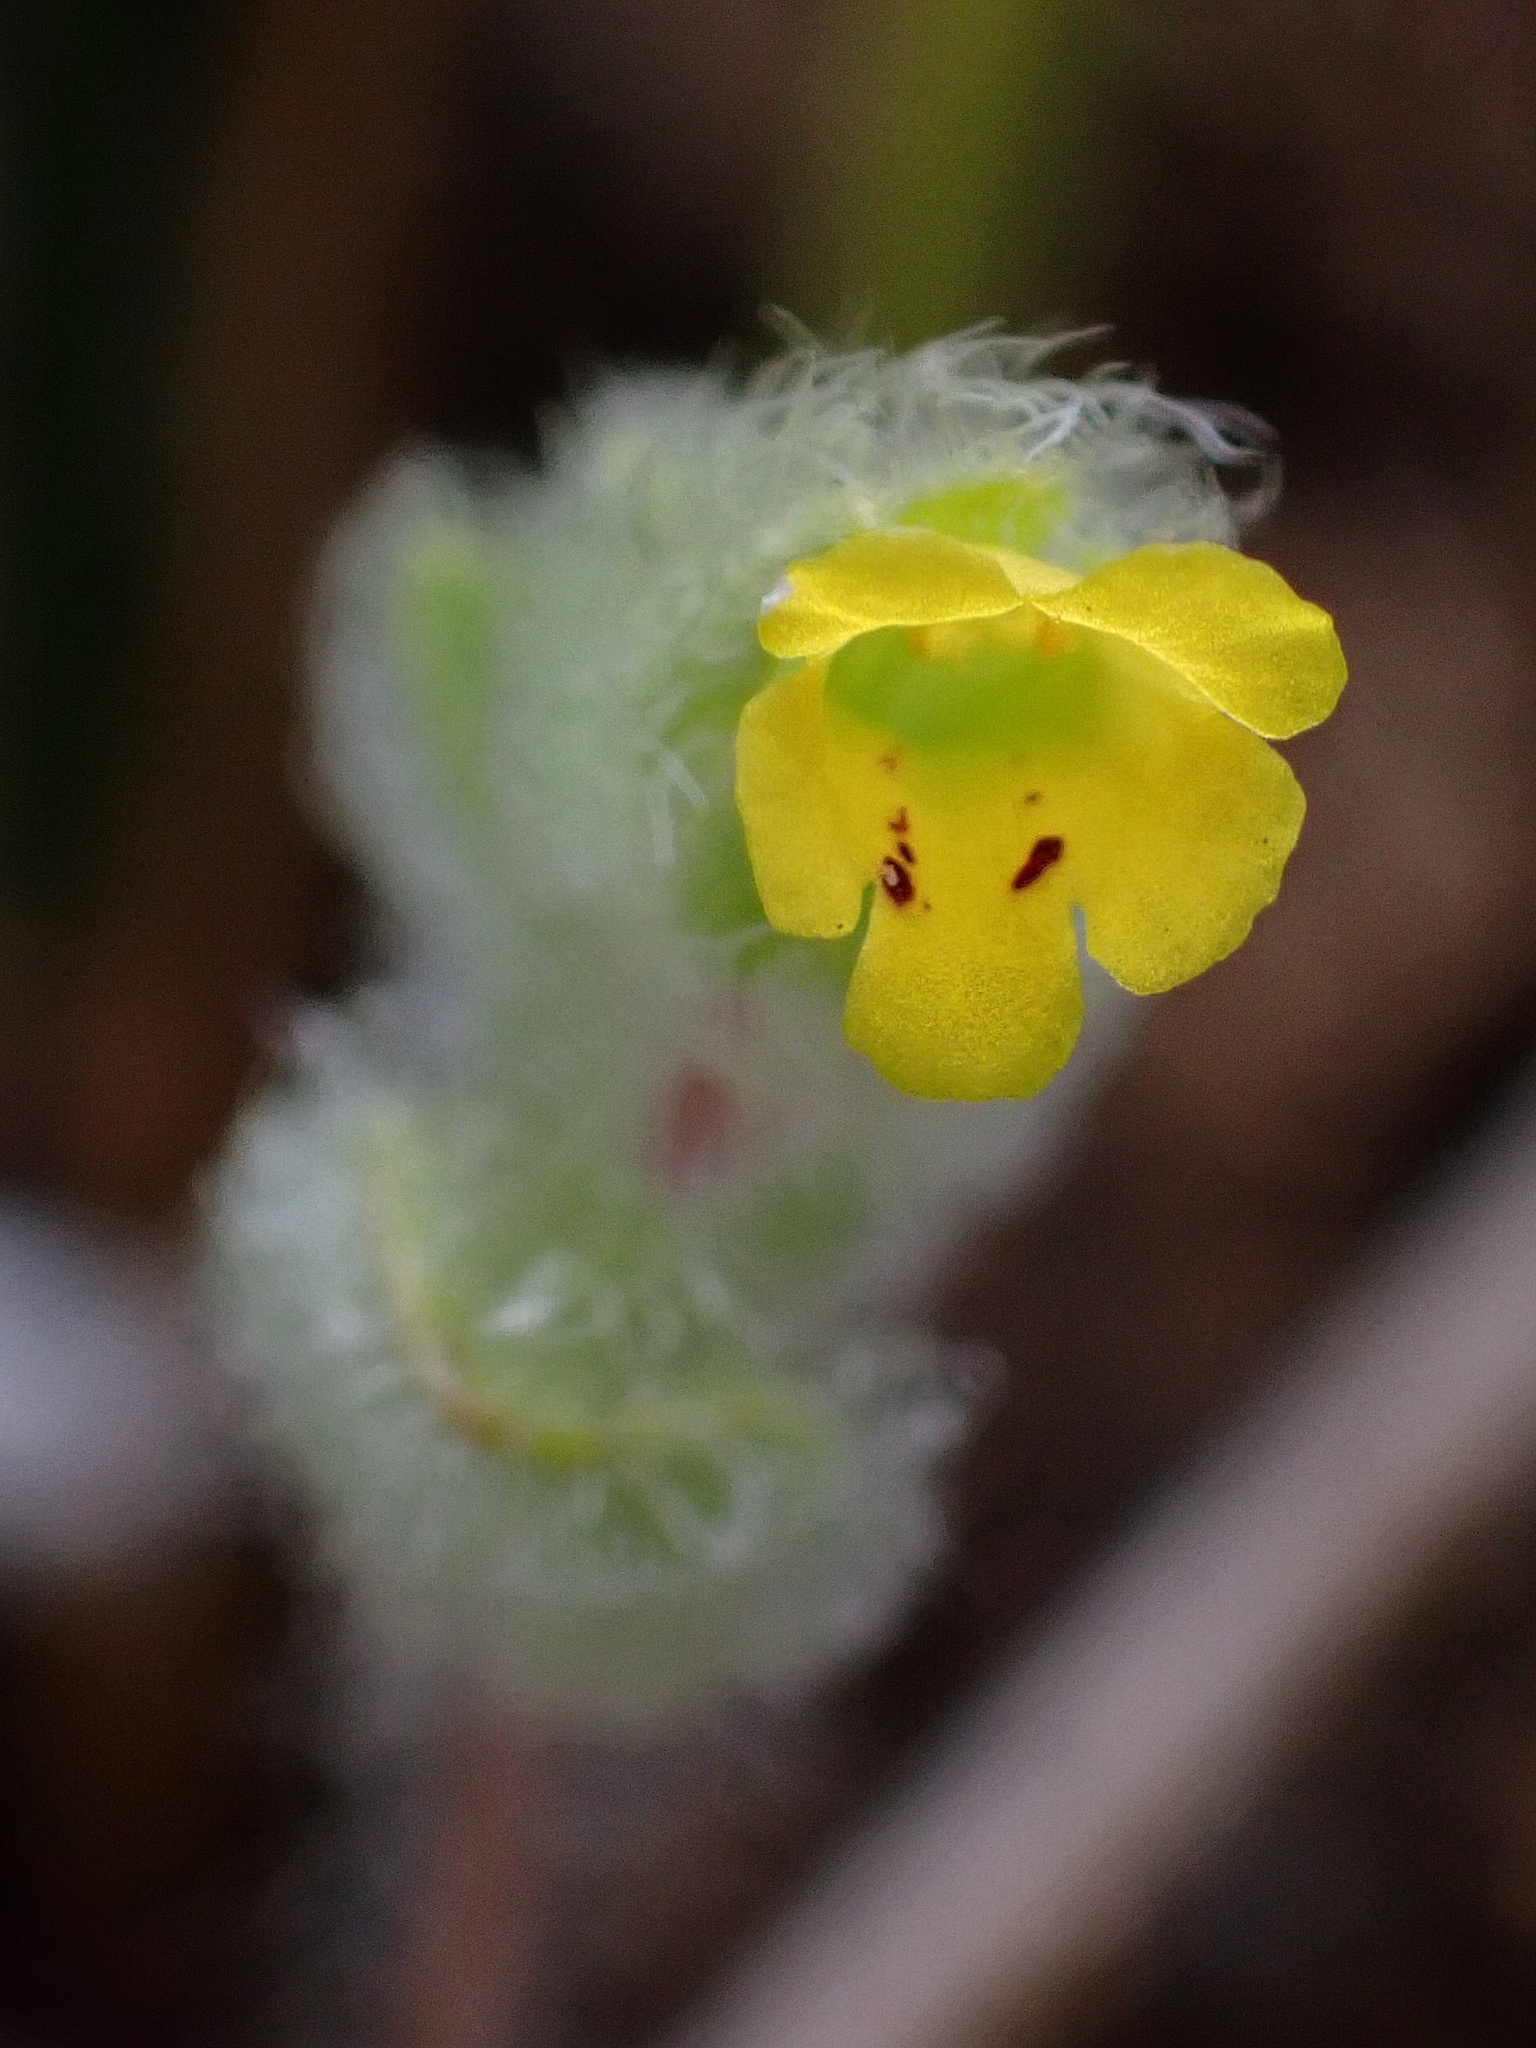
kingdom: Plantae
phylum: Tracheophyta
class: Magnoliopsida
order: Lamiales
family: Phrymaceae
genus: Mimetanthe
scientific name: Mimetanthe pilosa
